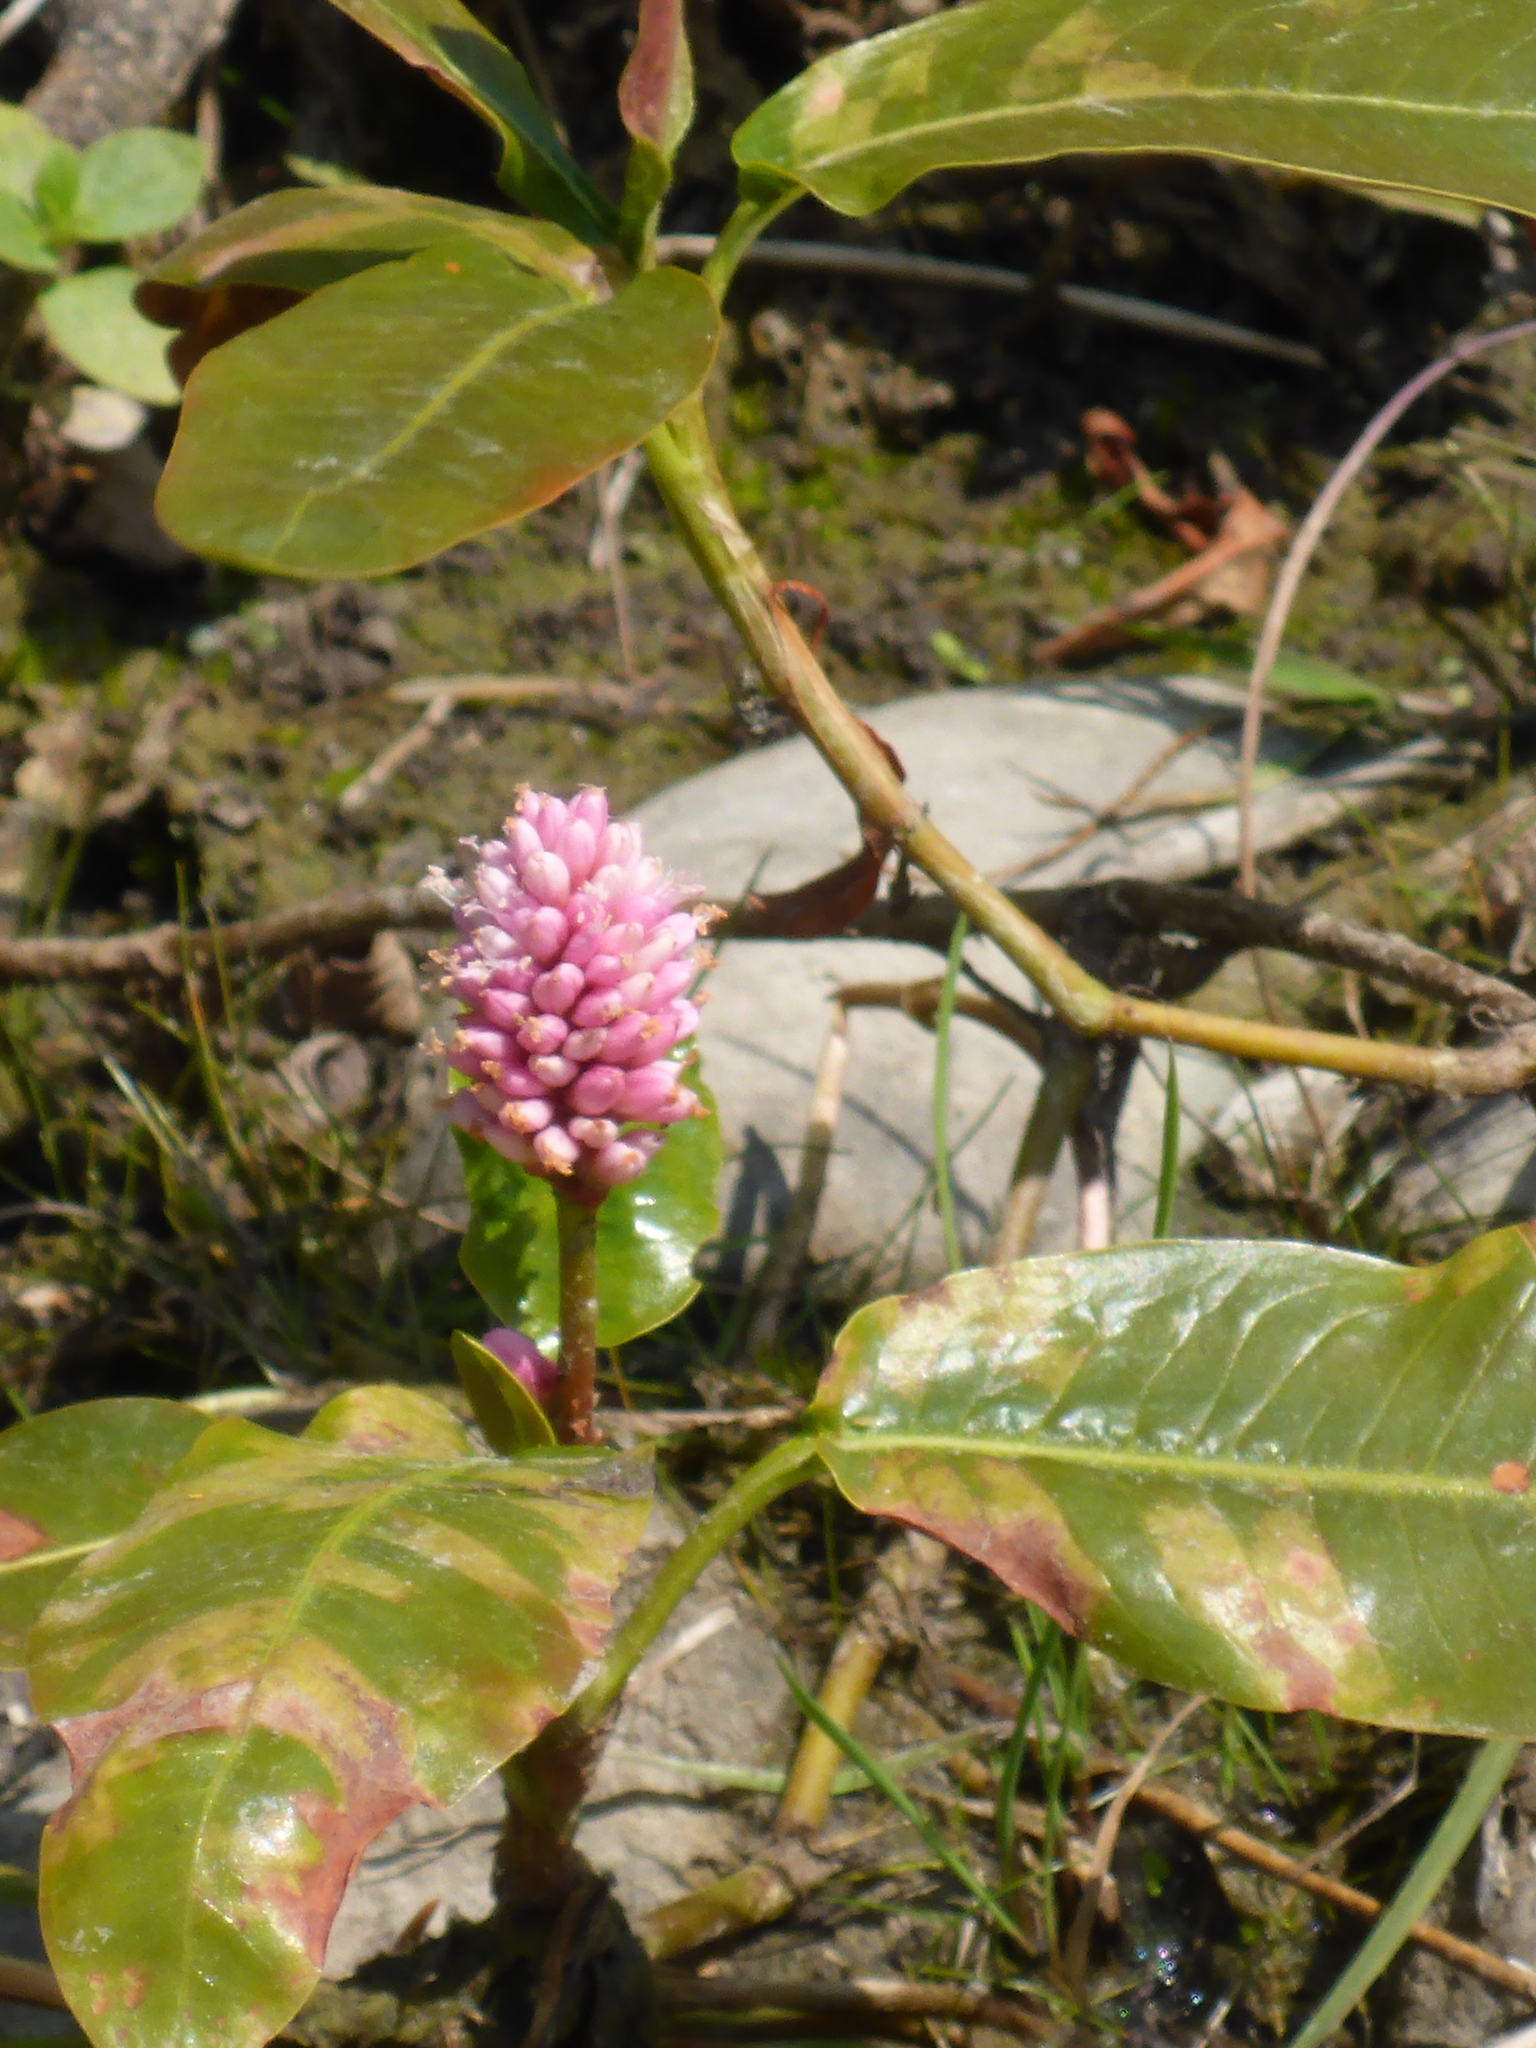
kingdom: Plantae
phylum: Tracheophyta
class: Magnoliopsida
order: Caryophyllales
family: Polygonaceae
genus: Persicaria
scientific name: Persicaria amphibia
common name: Amphibious bistort
